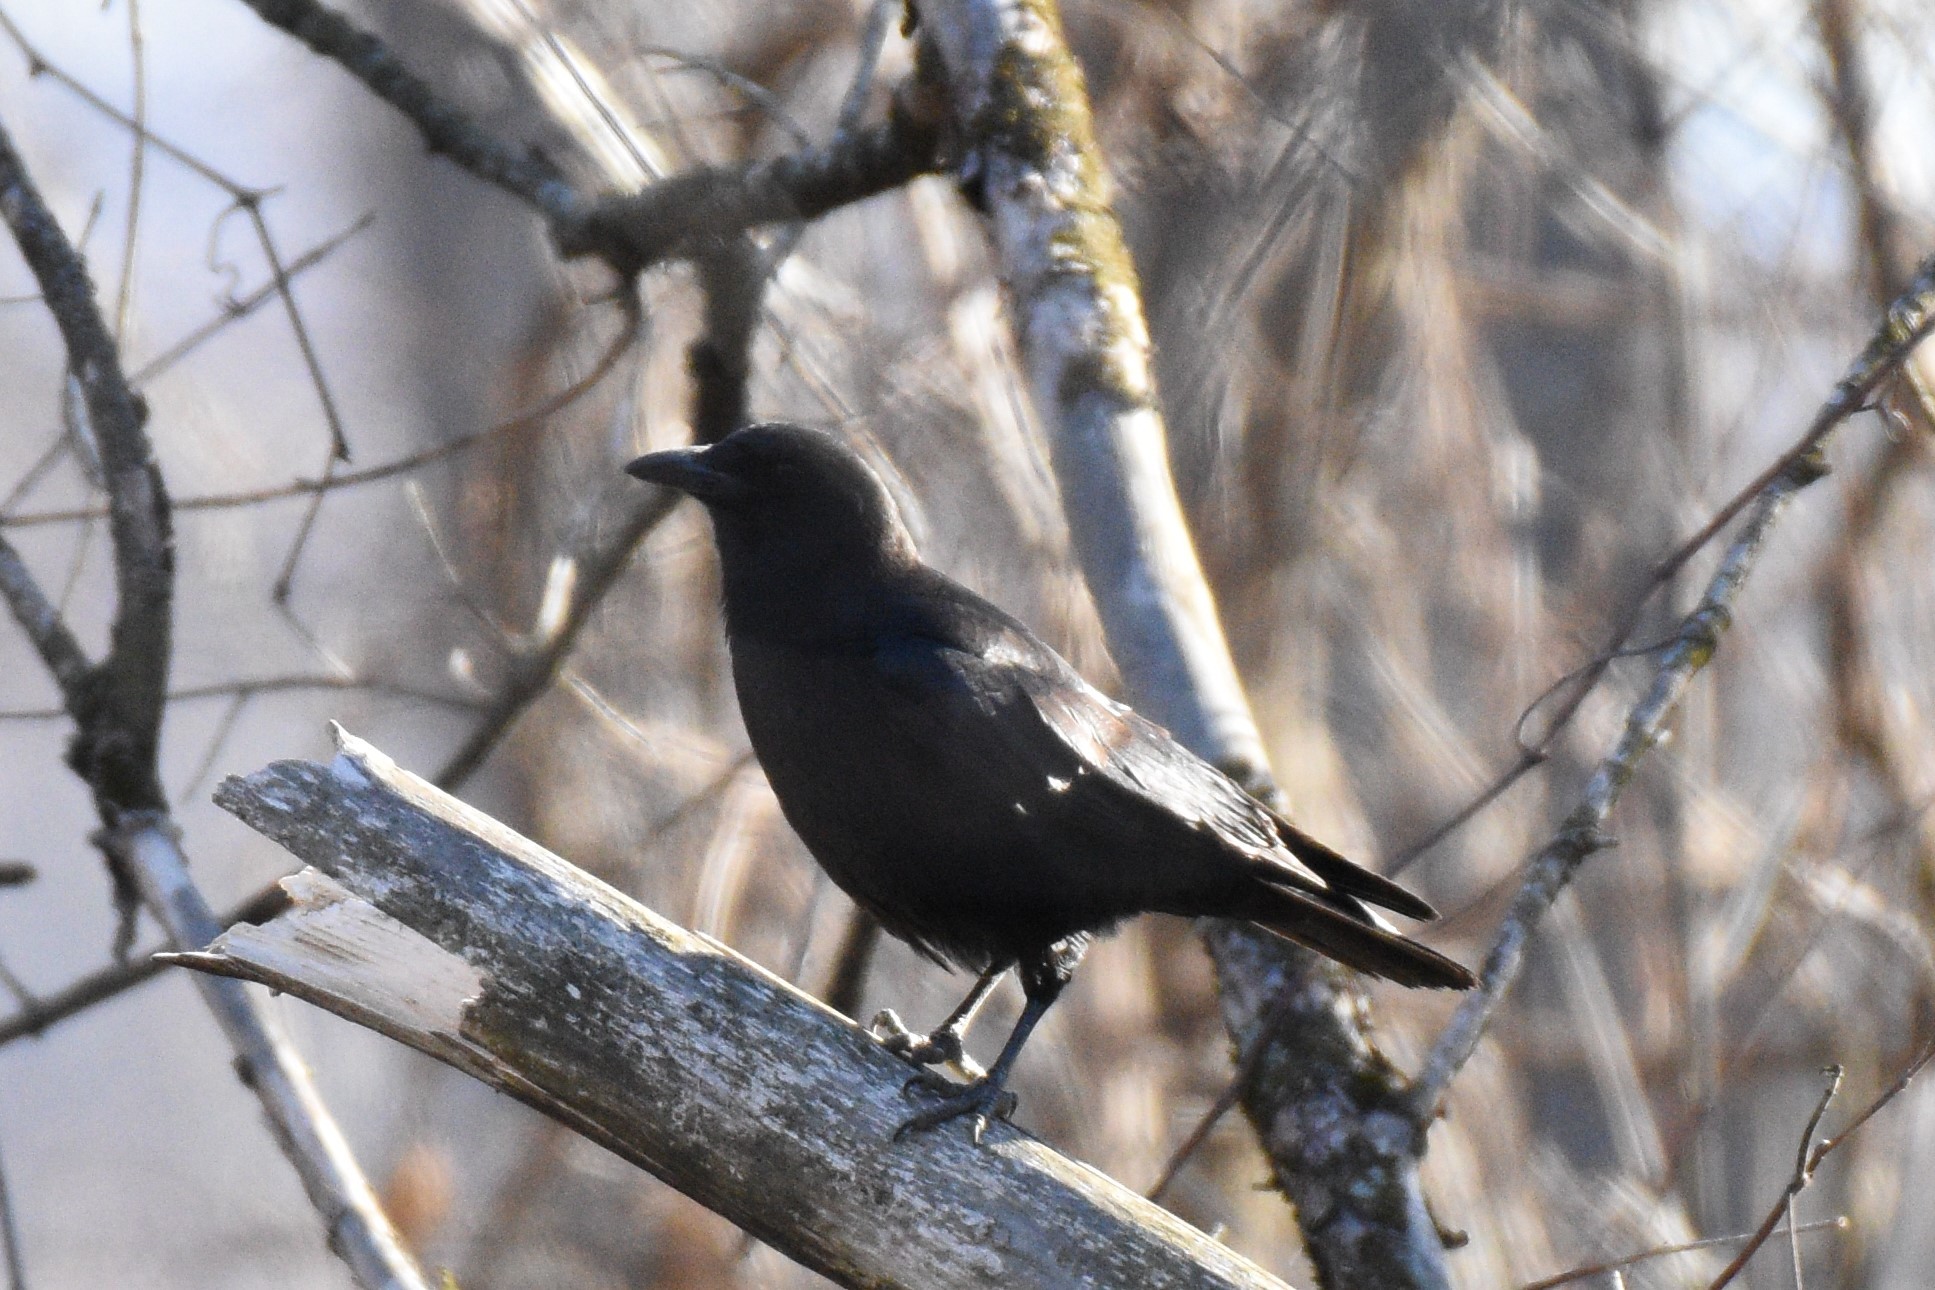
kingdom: Animalia
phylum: Chordata
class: Aves
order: Passeriformes
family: Corvidae
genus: Corvus
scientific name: Corvus brachyrhynchos
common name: American crow
